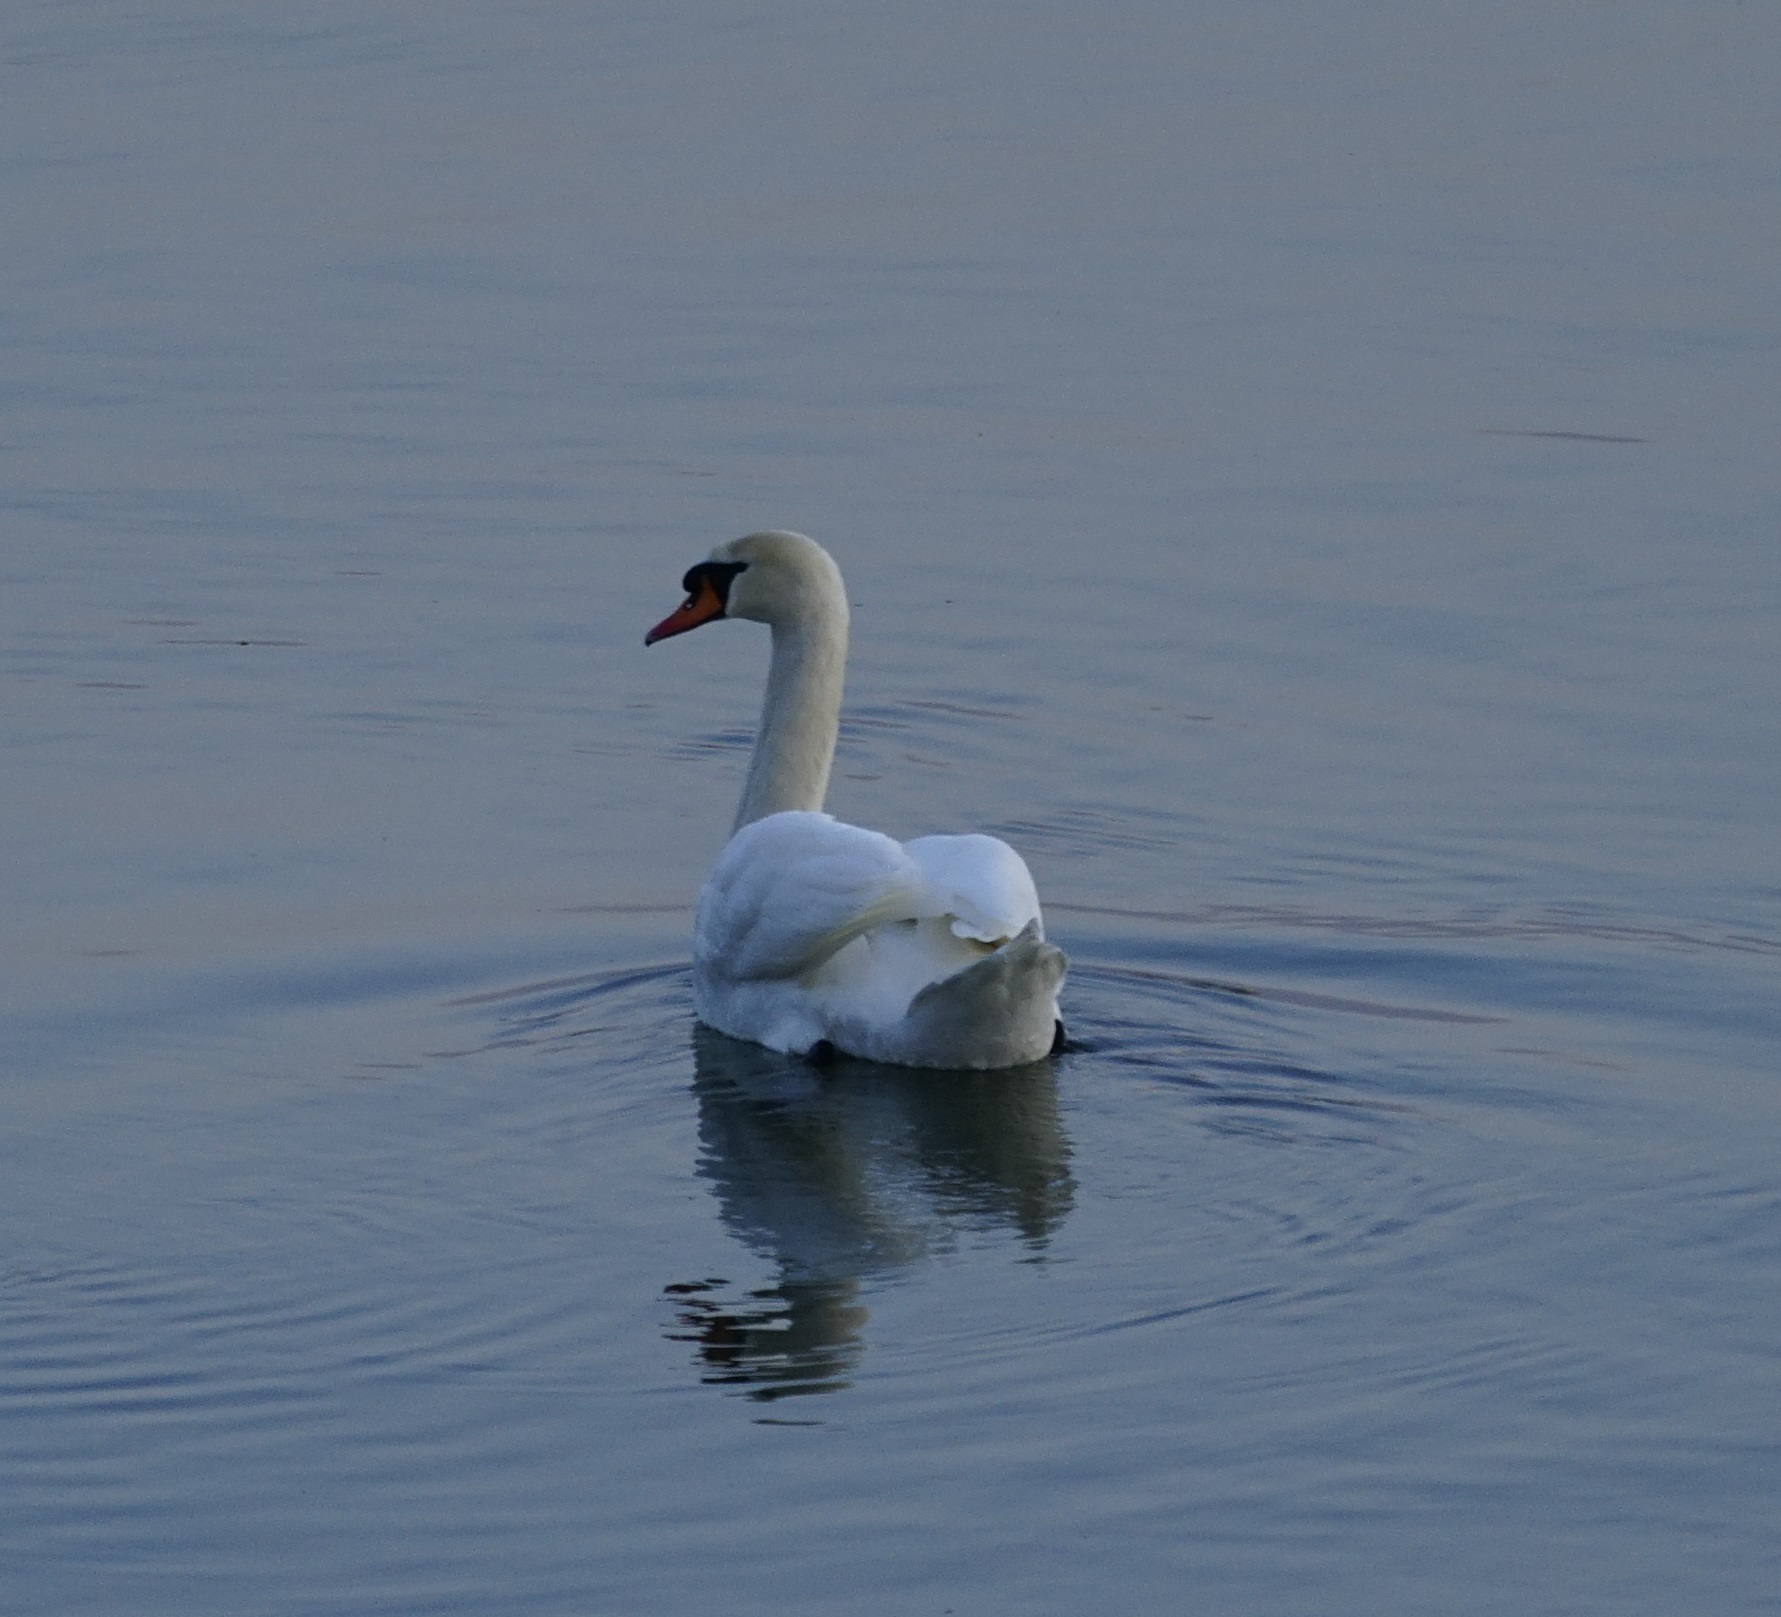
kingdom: Animalia
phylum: Chordata
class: Aves
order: Anseriformes
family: Anatidae
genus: Cygnus
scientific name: Cygnus olor
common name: Mute swan
